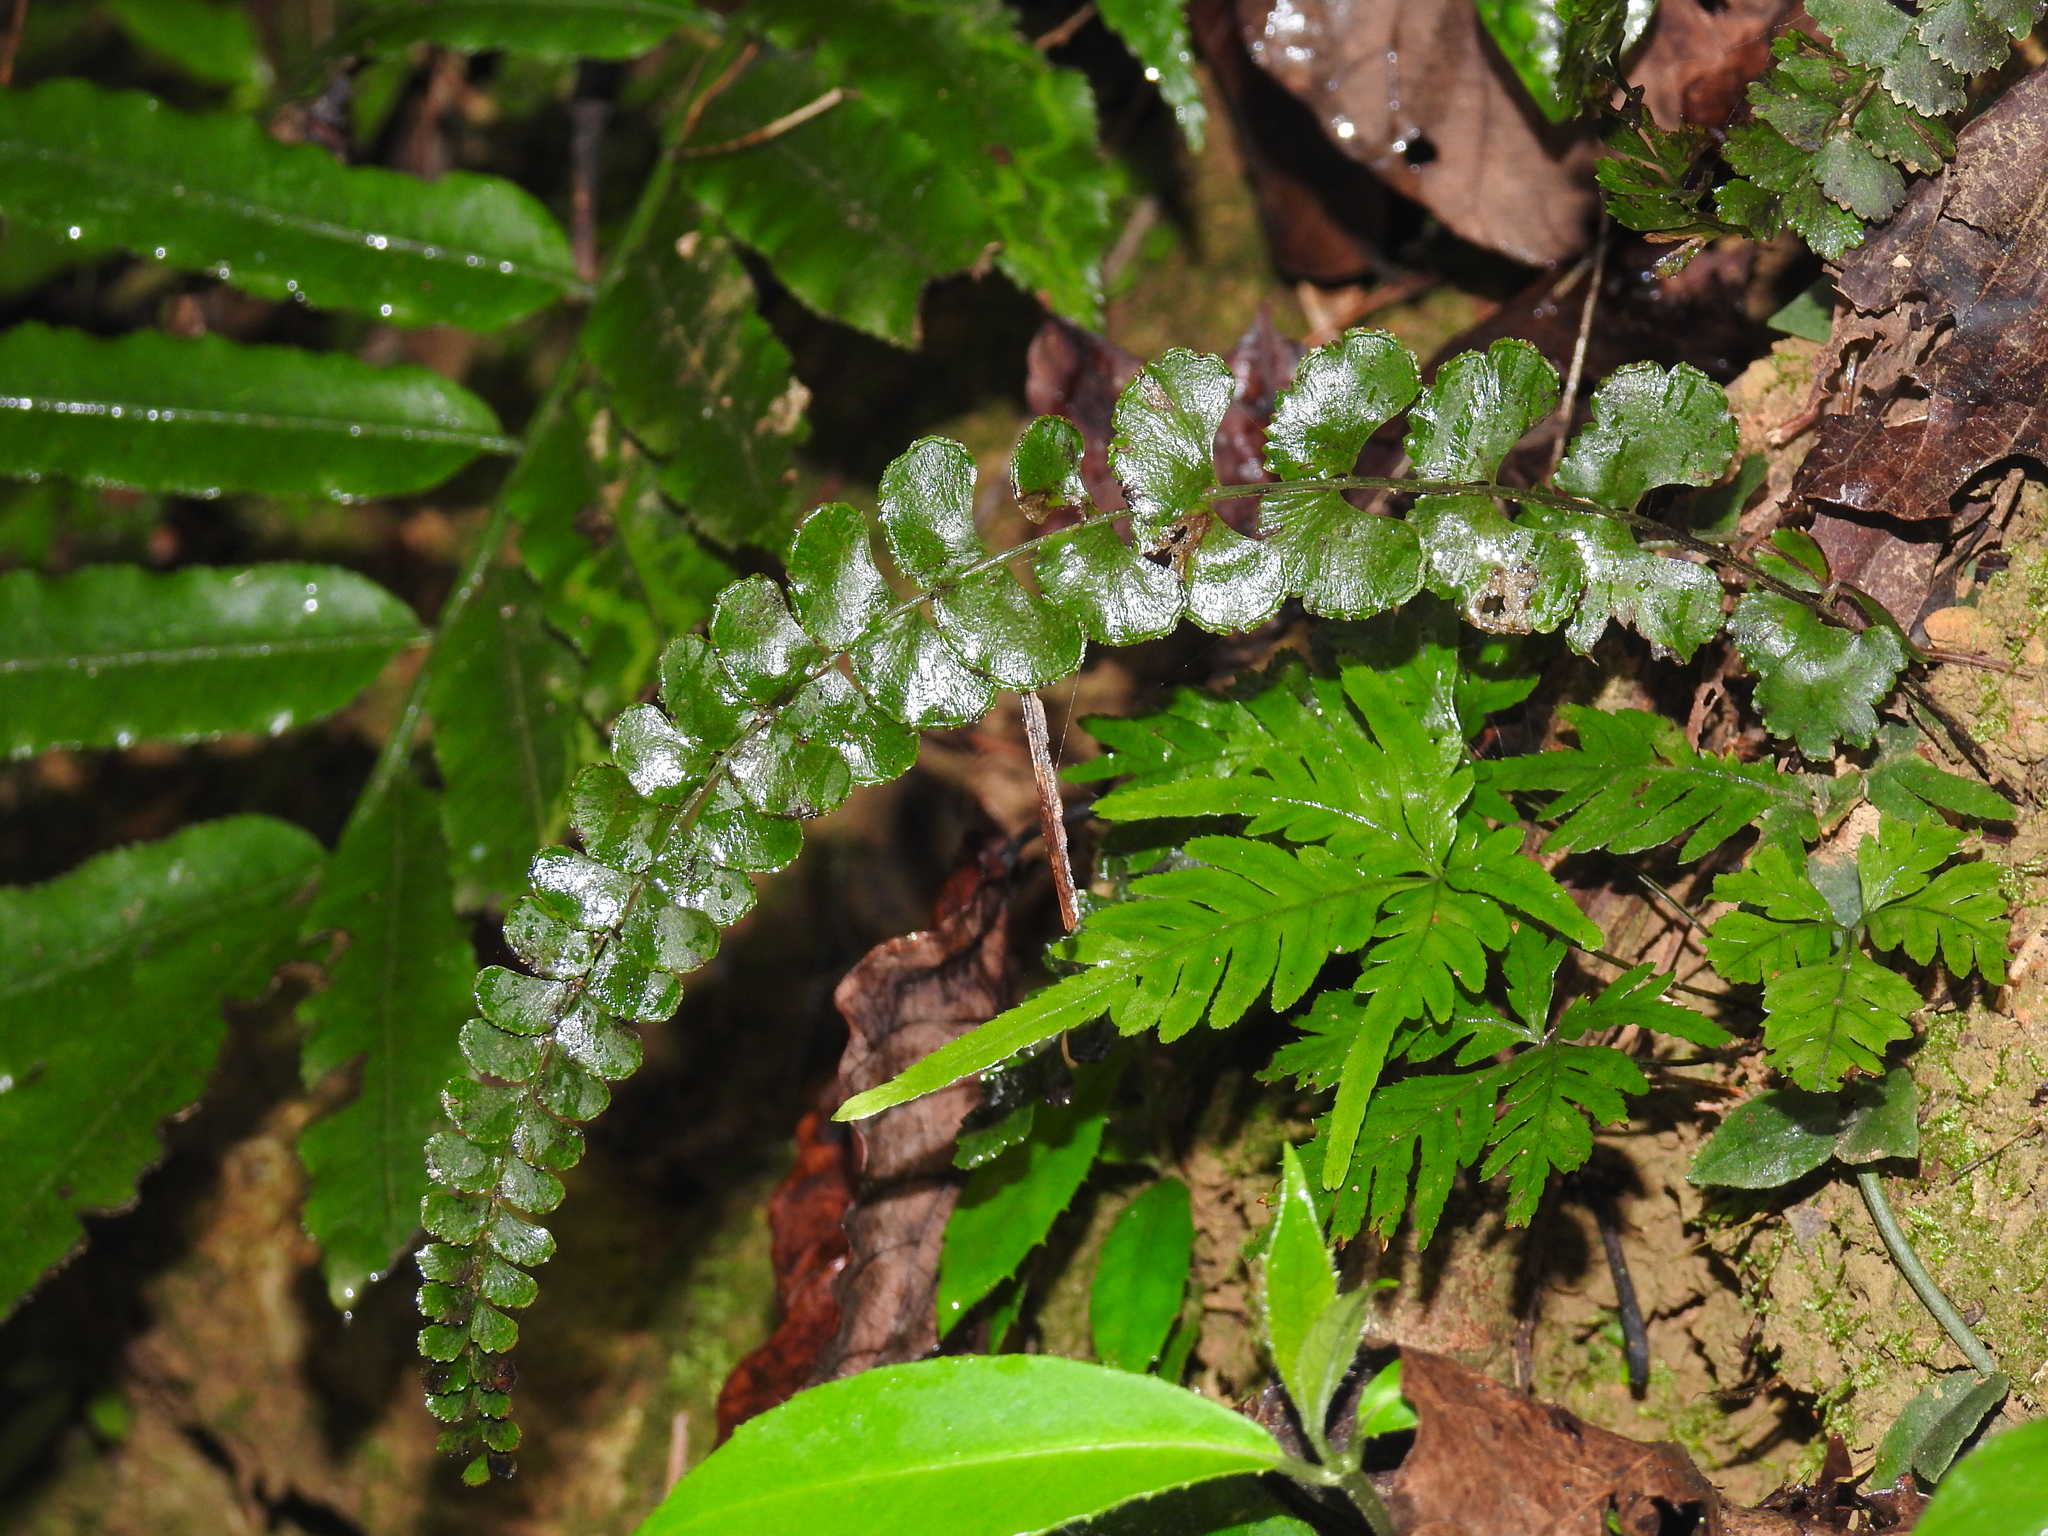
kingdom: Plantae
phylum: Tracheophyta
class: Polypodiopsida
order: Polypodiales
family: Lindsaeaceae
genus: Lindsaea
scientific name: Lindsaea orbiculata
